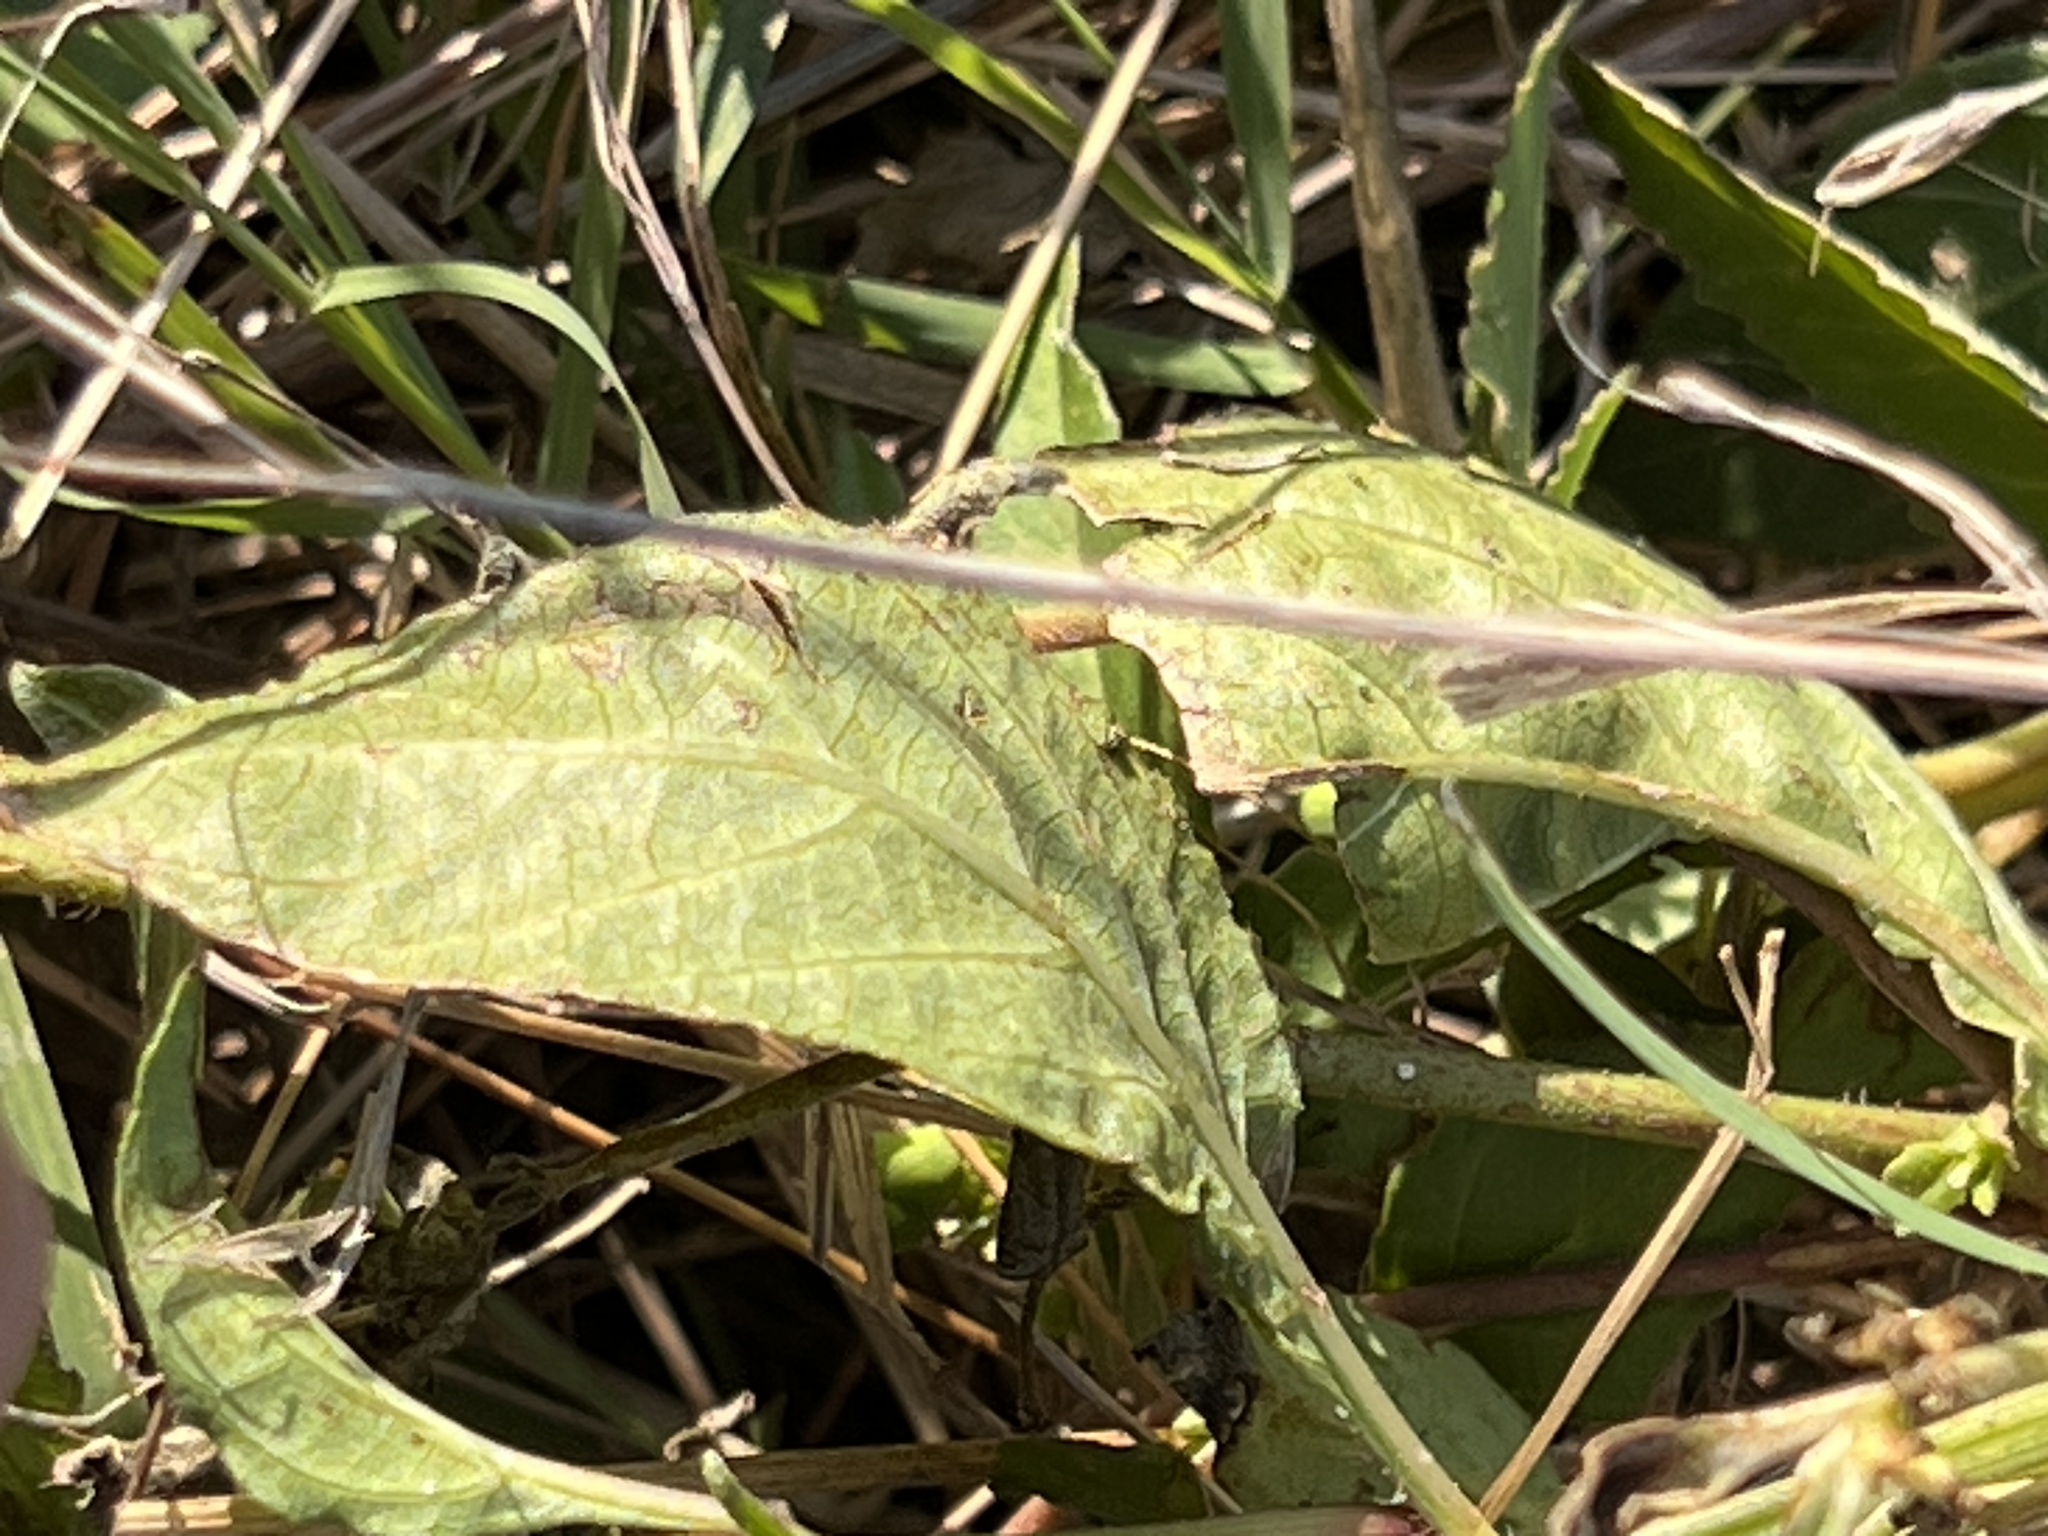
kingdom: Plantae
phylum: Tracheophyta
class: Magnoliopsida
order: Lamiales
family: Acanthaceae
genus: Ruellia
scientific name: Ruellia ciliatiflora
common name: Hairyflower wild petunia
